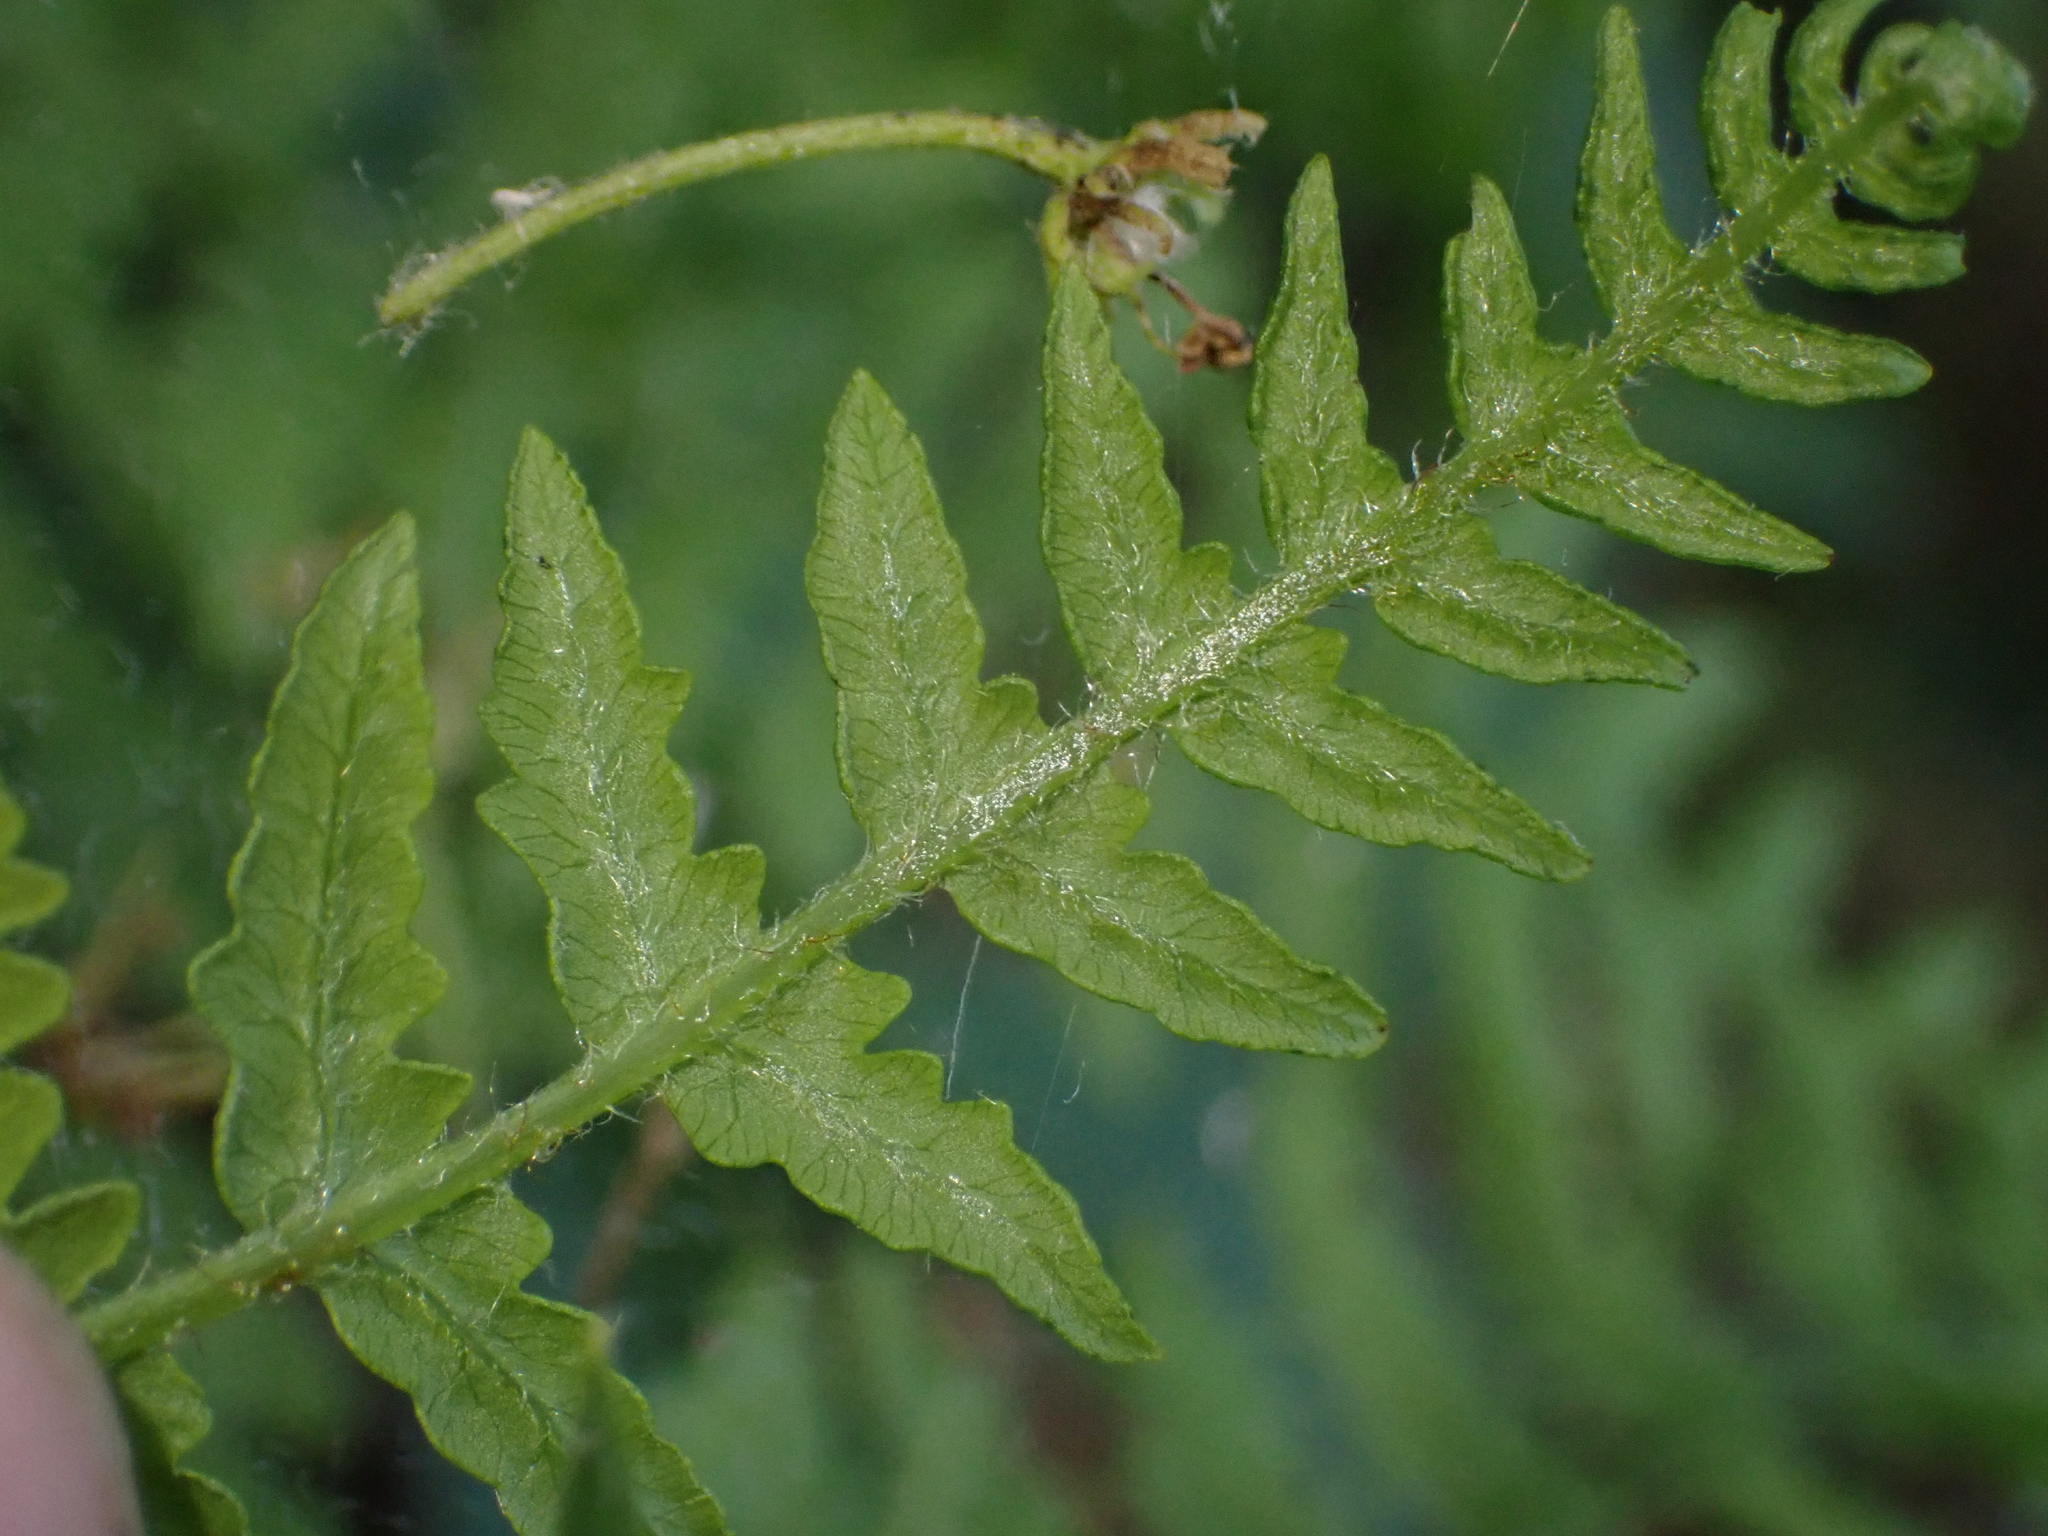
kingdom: Plantae
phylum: Tracheophyta
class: Polypodiopsida
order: Polypodiales
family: Dennstaedtiaceae
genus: Pteridium
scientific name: Pteridium aquilinum
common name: Bracken
